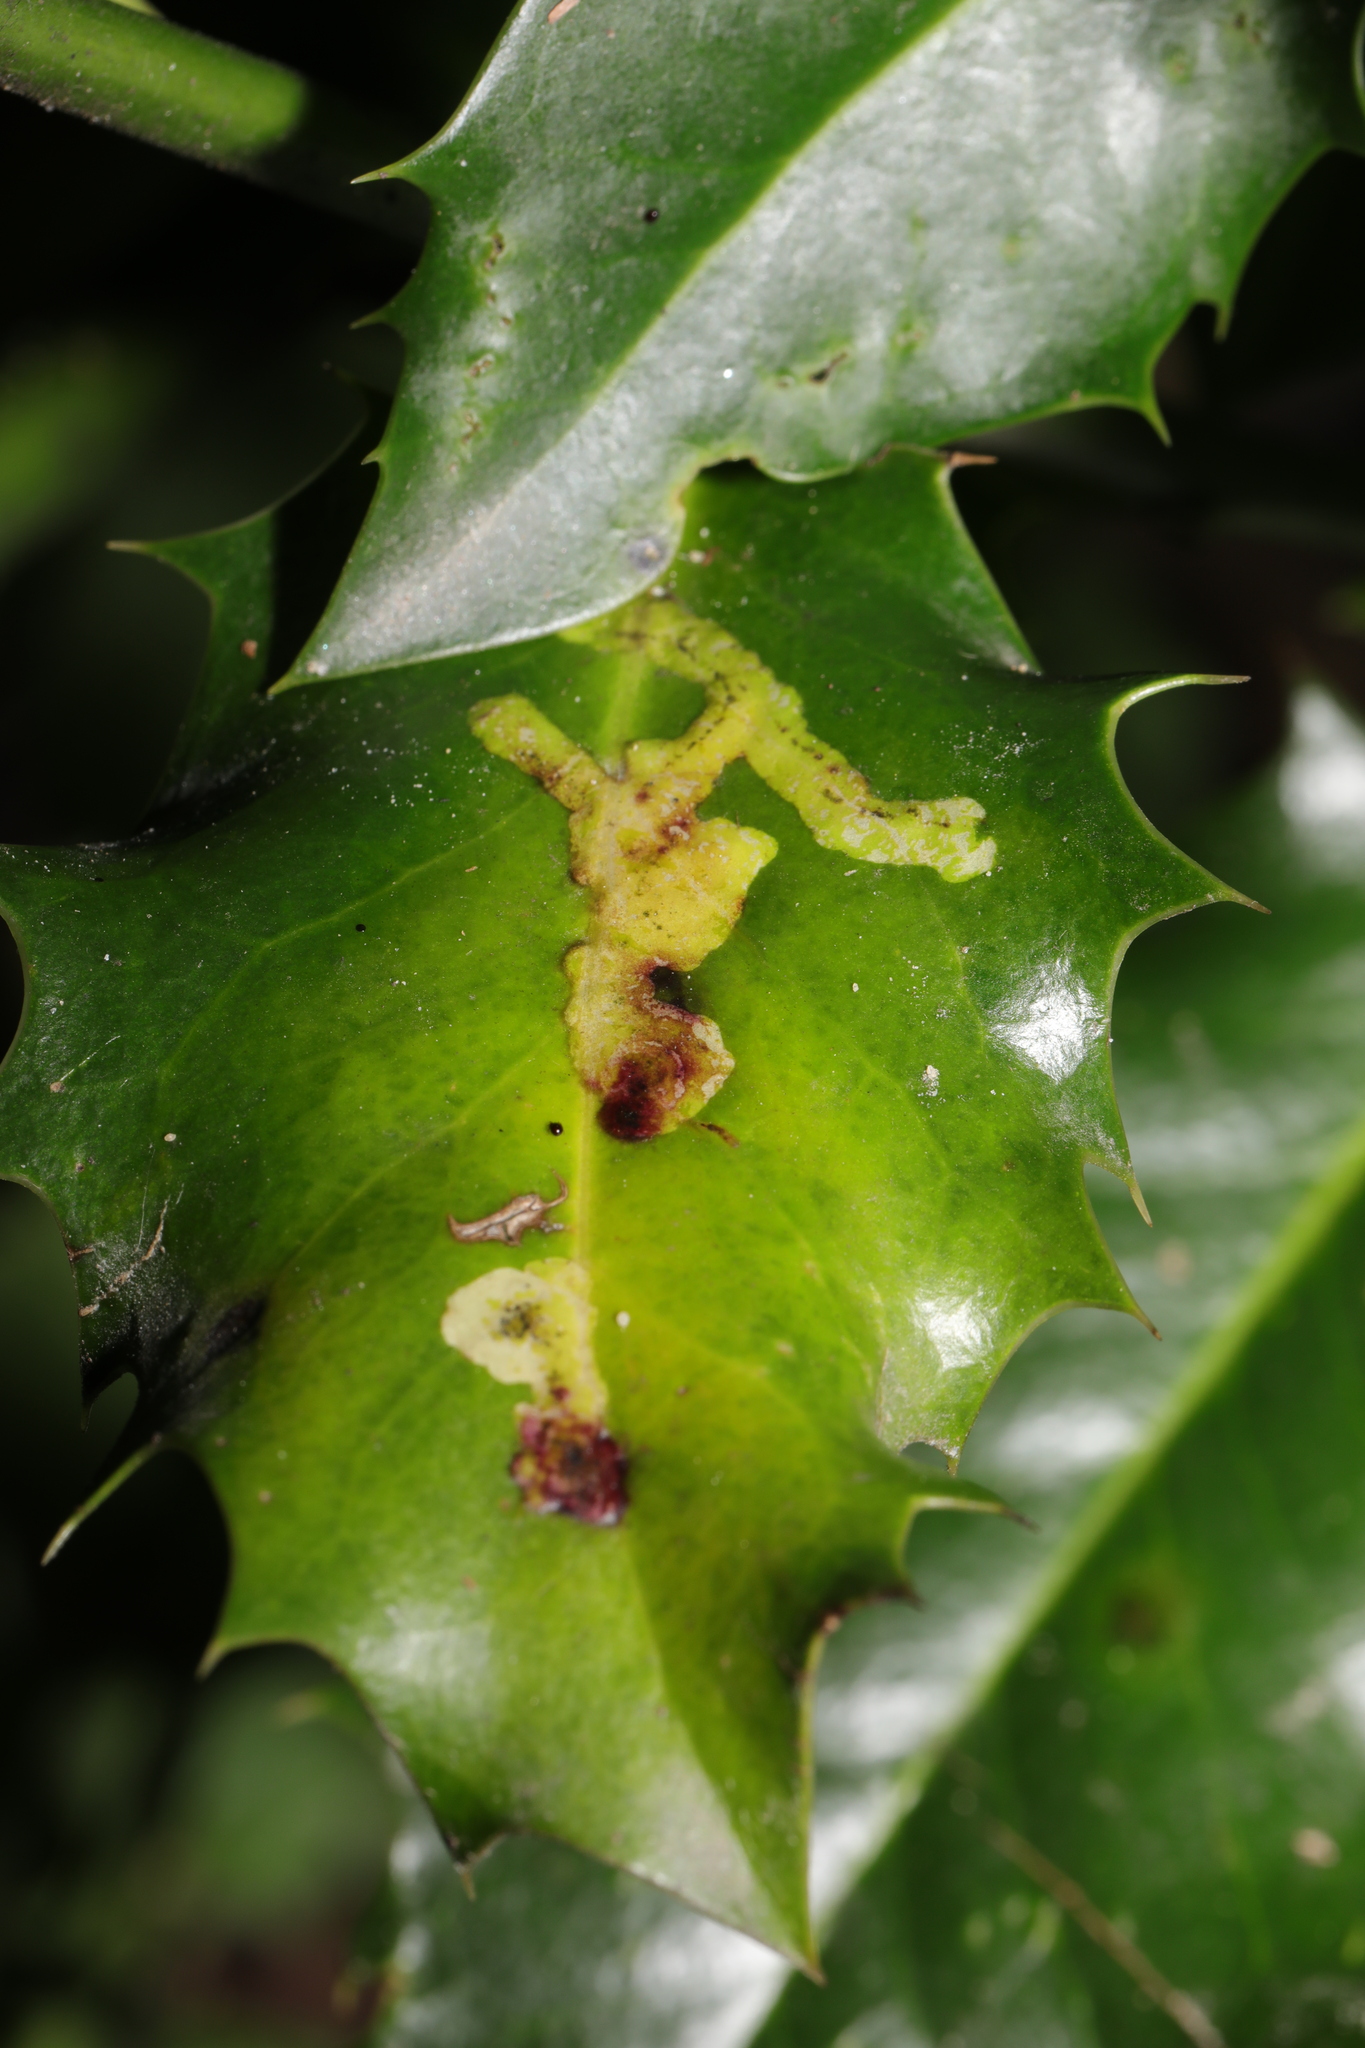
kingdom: Animalia
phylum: Arthropoda
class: Insecta
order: Diptera
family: Agromyzidae
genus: Phytomyza
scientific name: Phytomyza ilicis
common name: Holly leafminer
